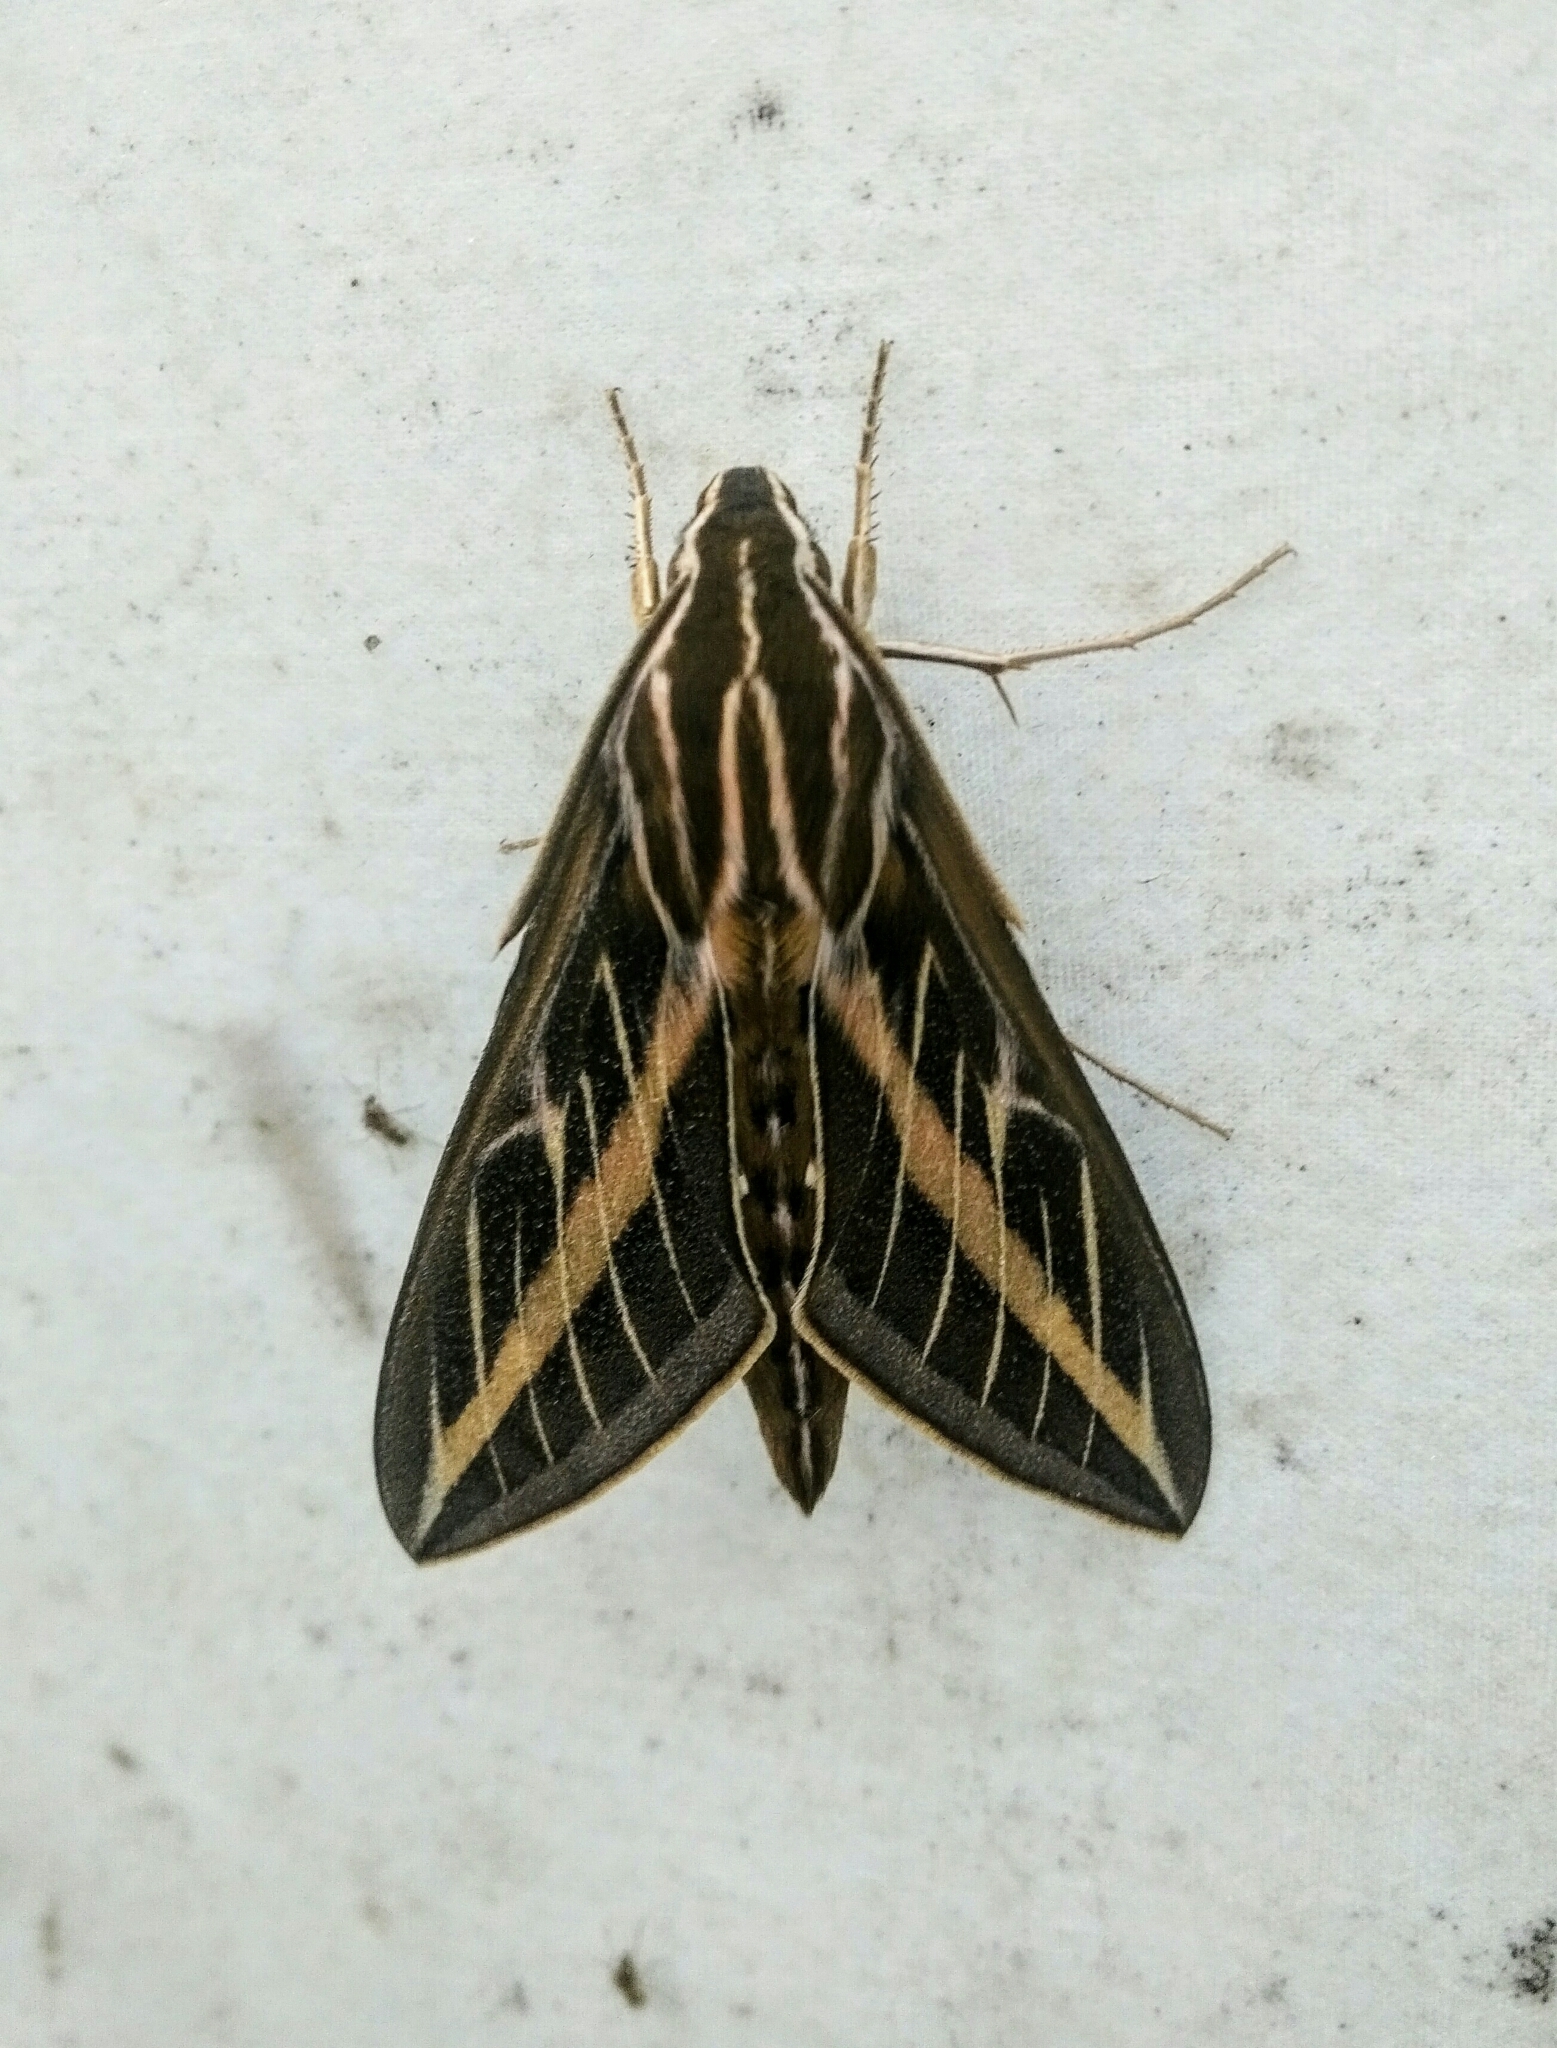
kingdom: Animalia
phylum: Arthropoda
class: Insecta
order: Lepidoptera
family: Sphingidae
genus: Hyles
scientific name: Hyles lineata
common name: White-lined sphinx
